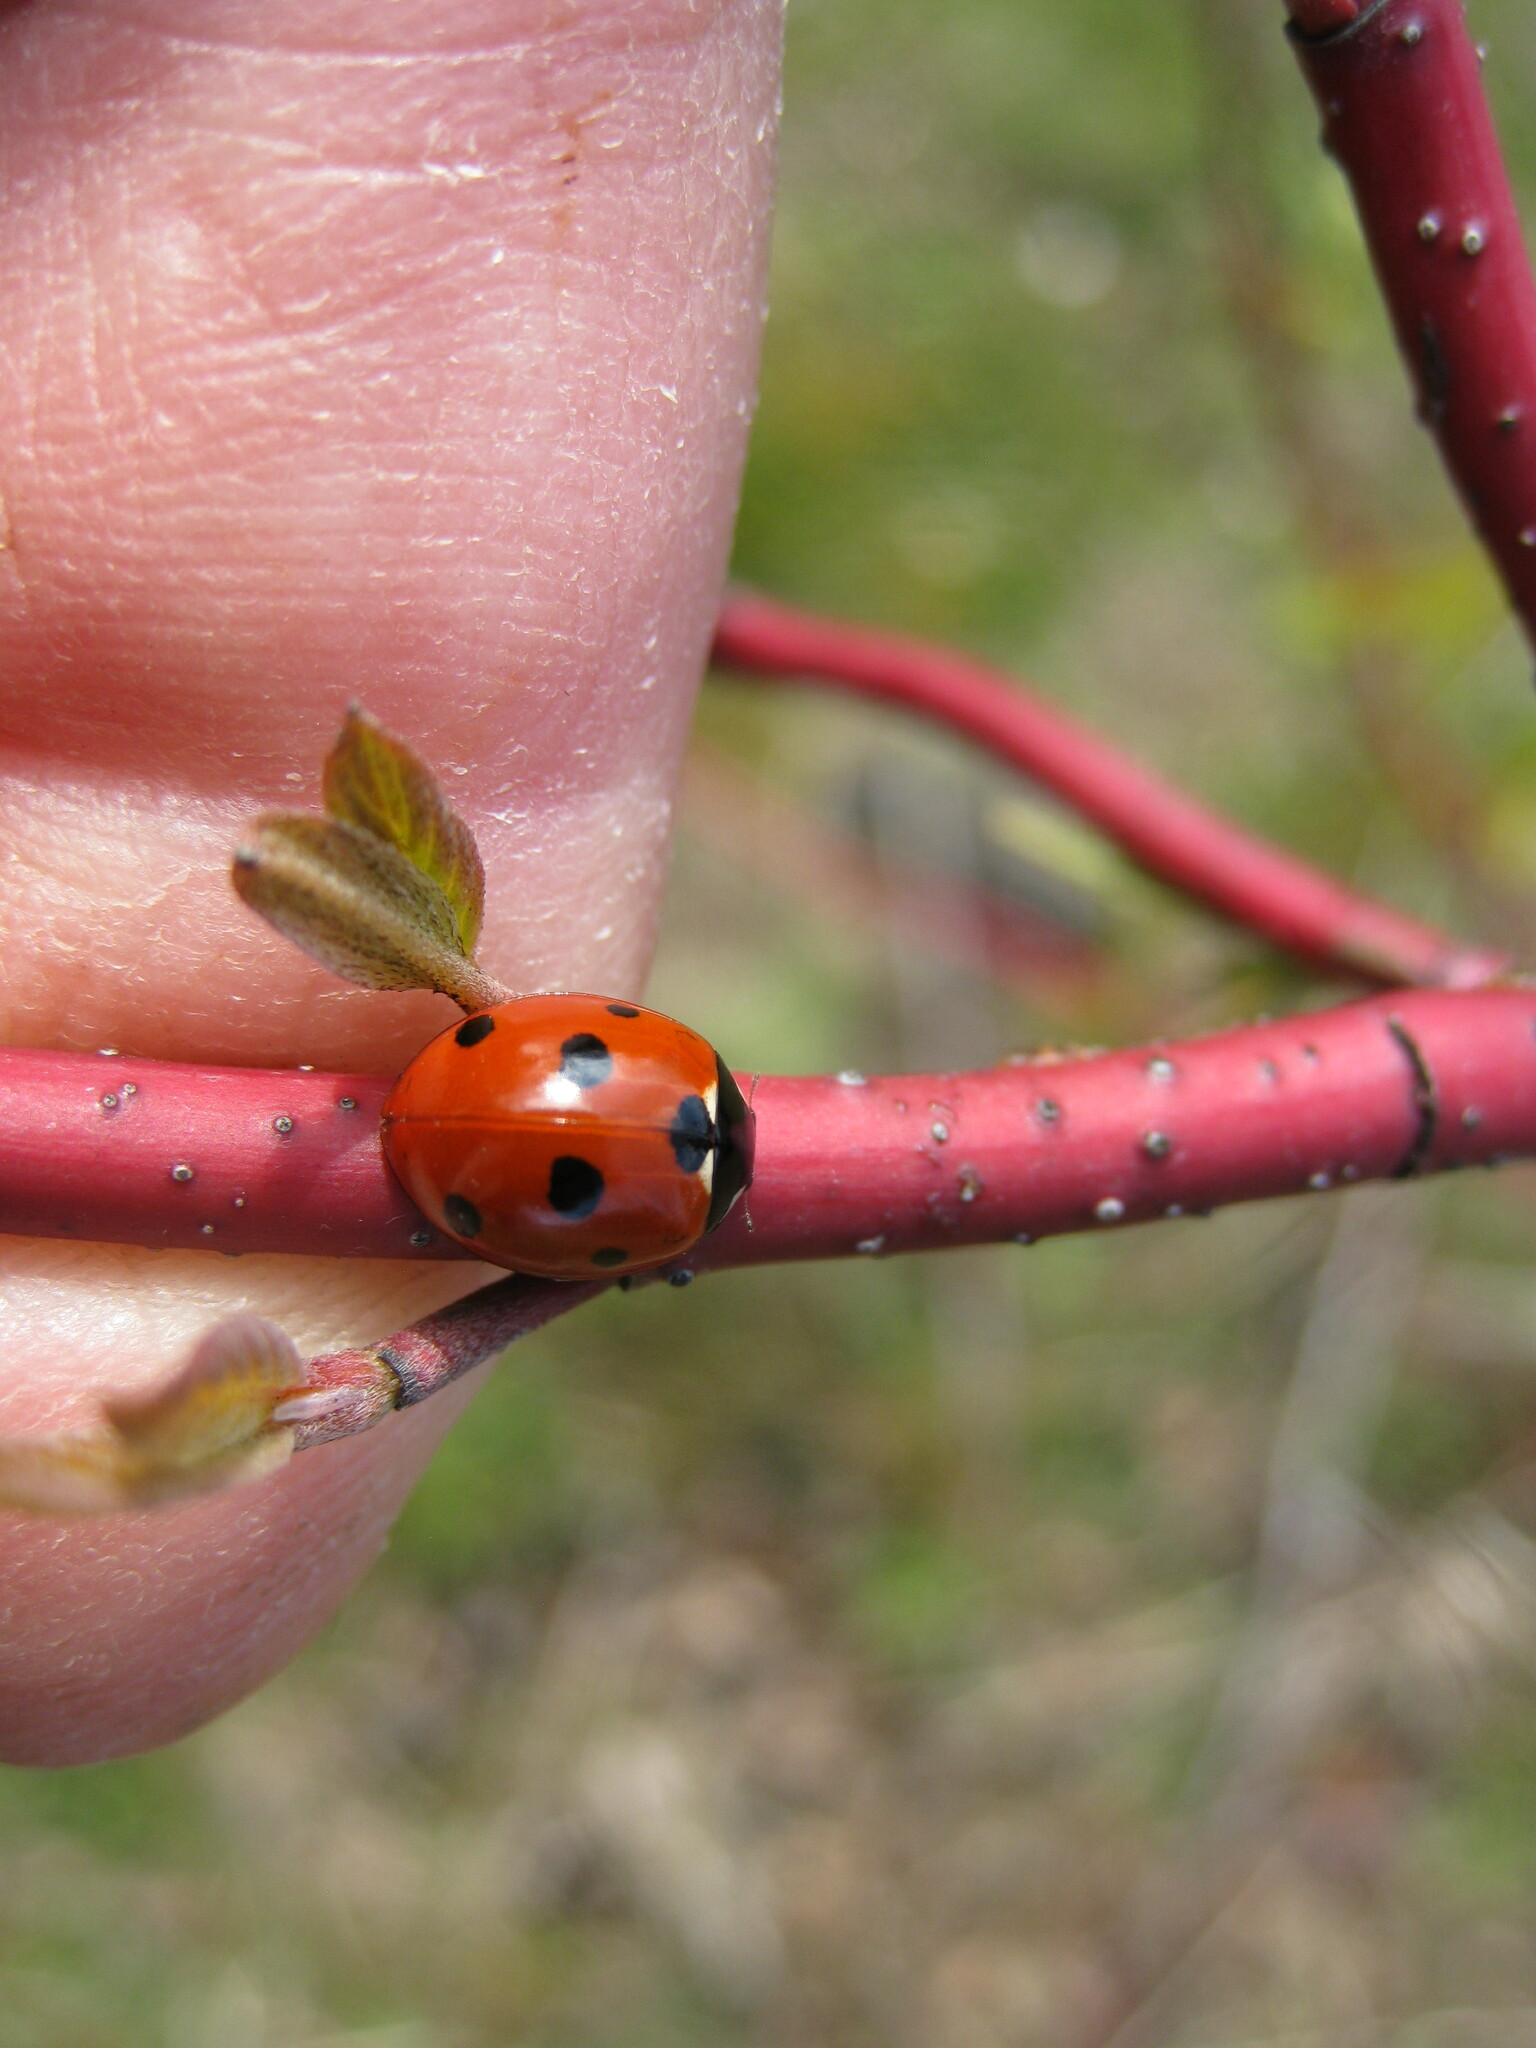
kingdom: Animalia
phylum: Arthropoda
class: Insecta
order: Coleoptera
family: Coccinellidae
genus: Coccinella
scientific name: Coccinella septempunctata
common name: Sevenspotted lady beetle
